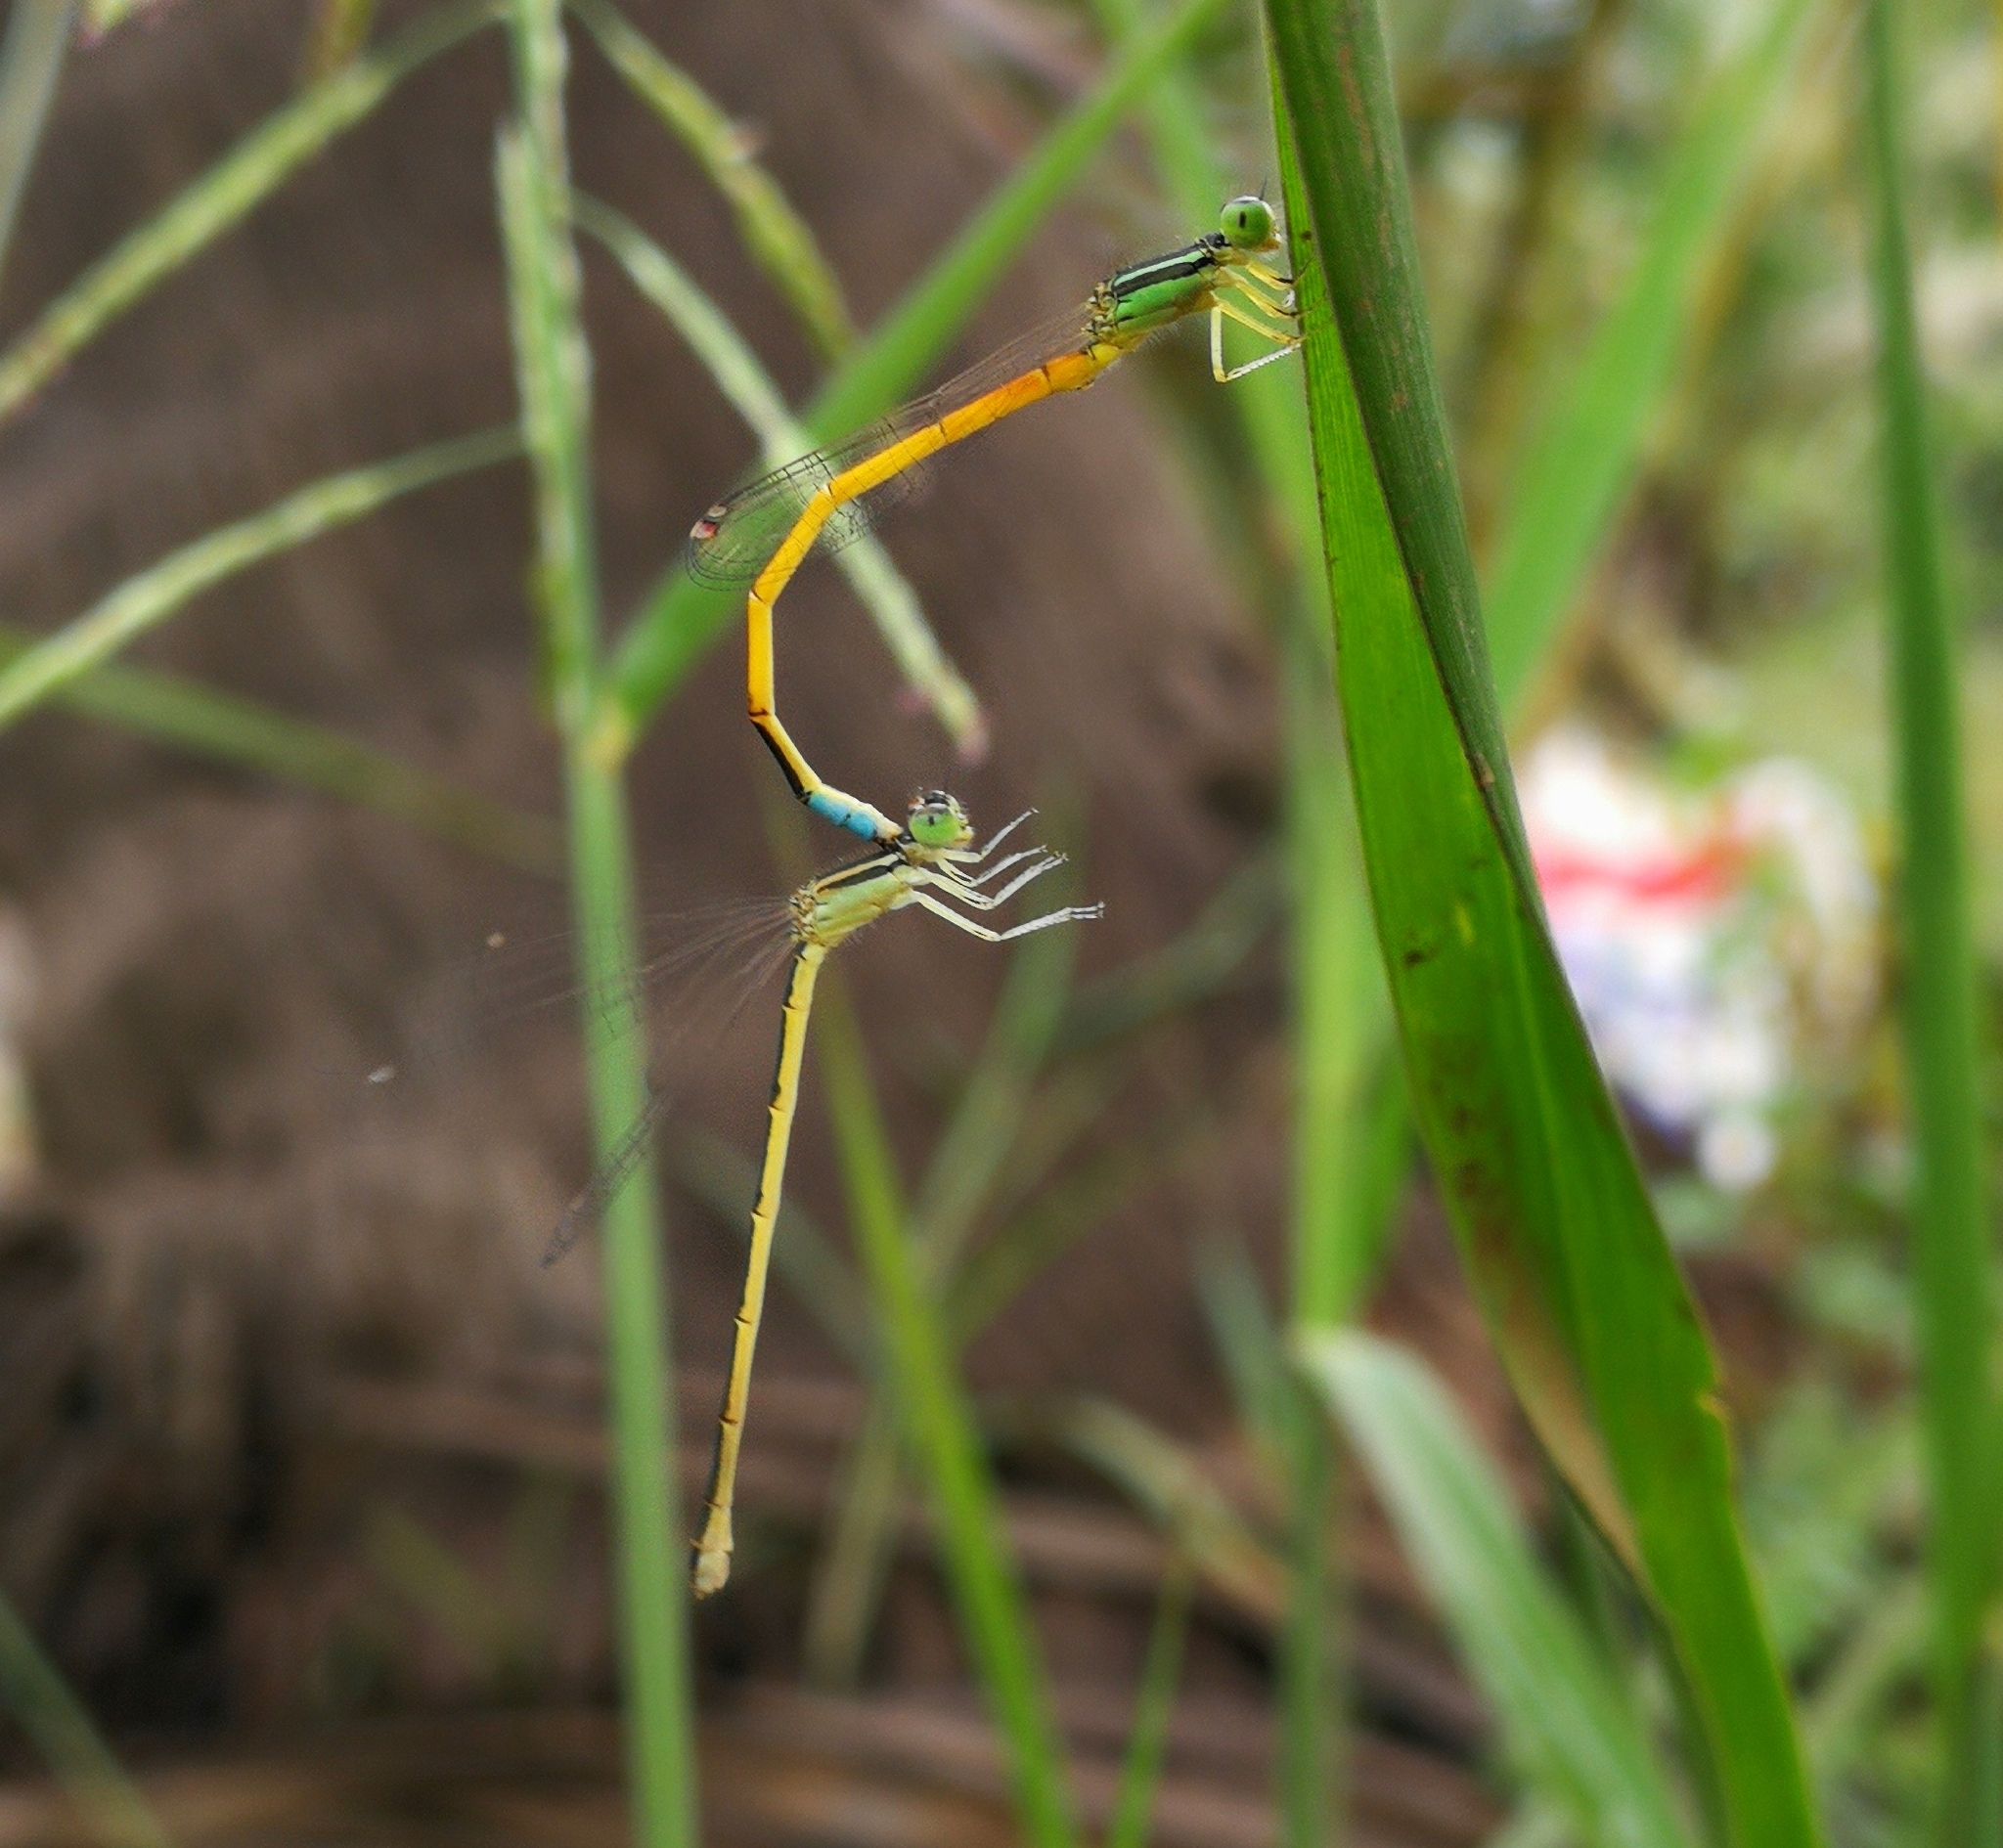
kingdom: Animalia
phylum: Arthropoda
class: Insecta
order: Odonata
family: Coenagrionidae
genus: Ischnura
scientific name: Ischnura rubilio
